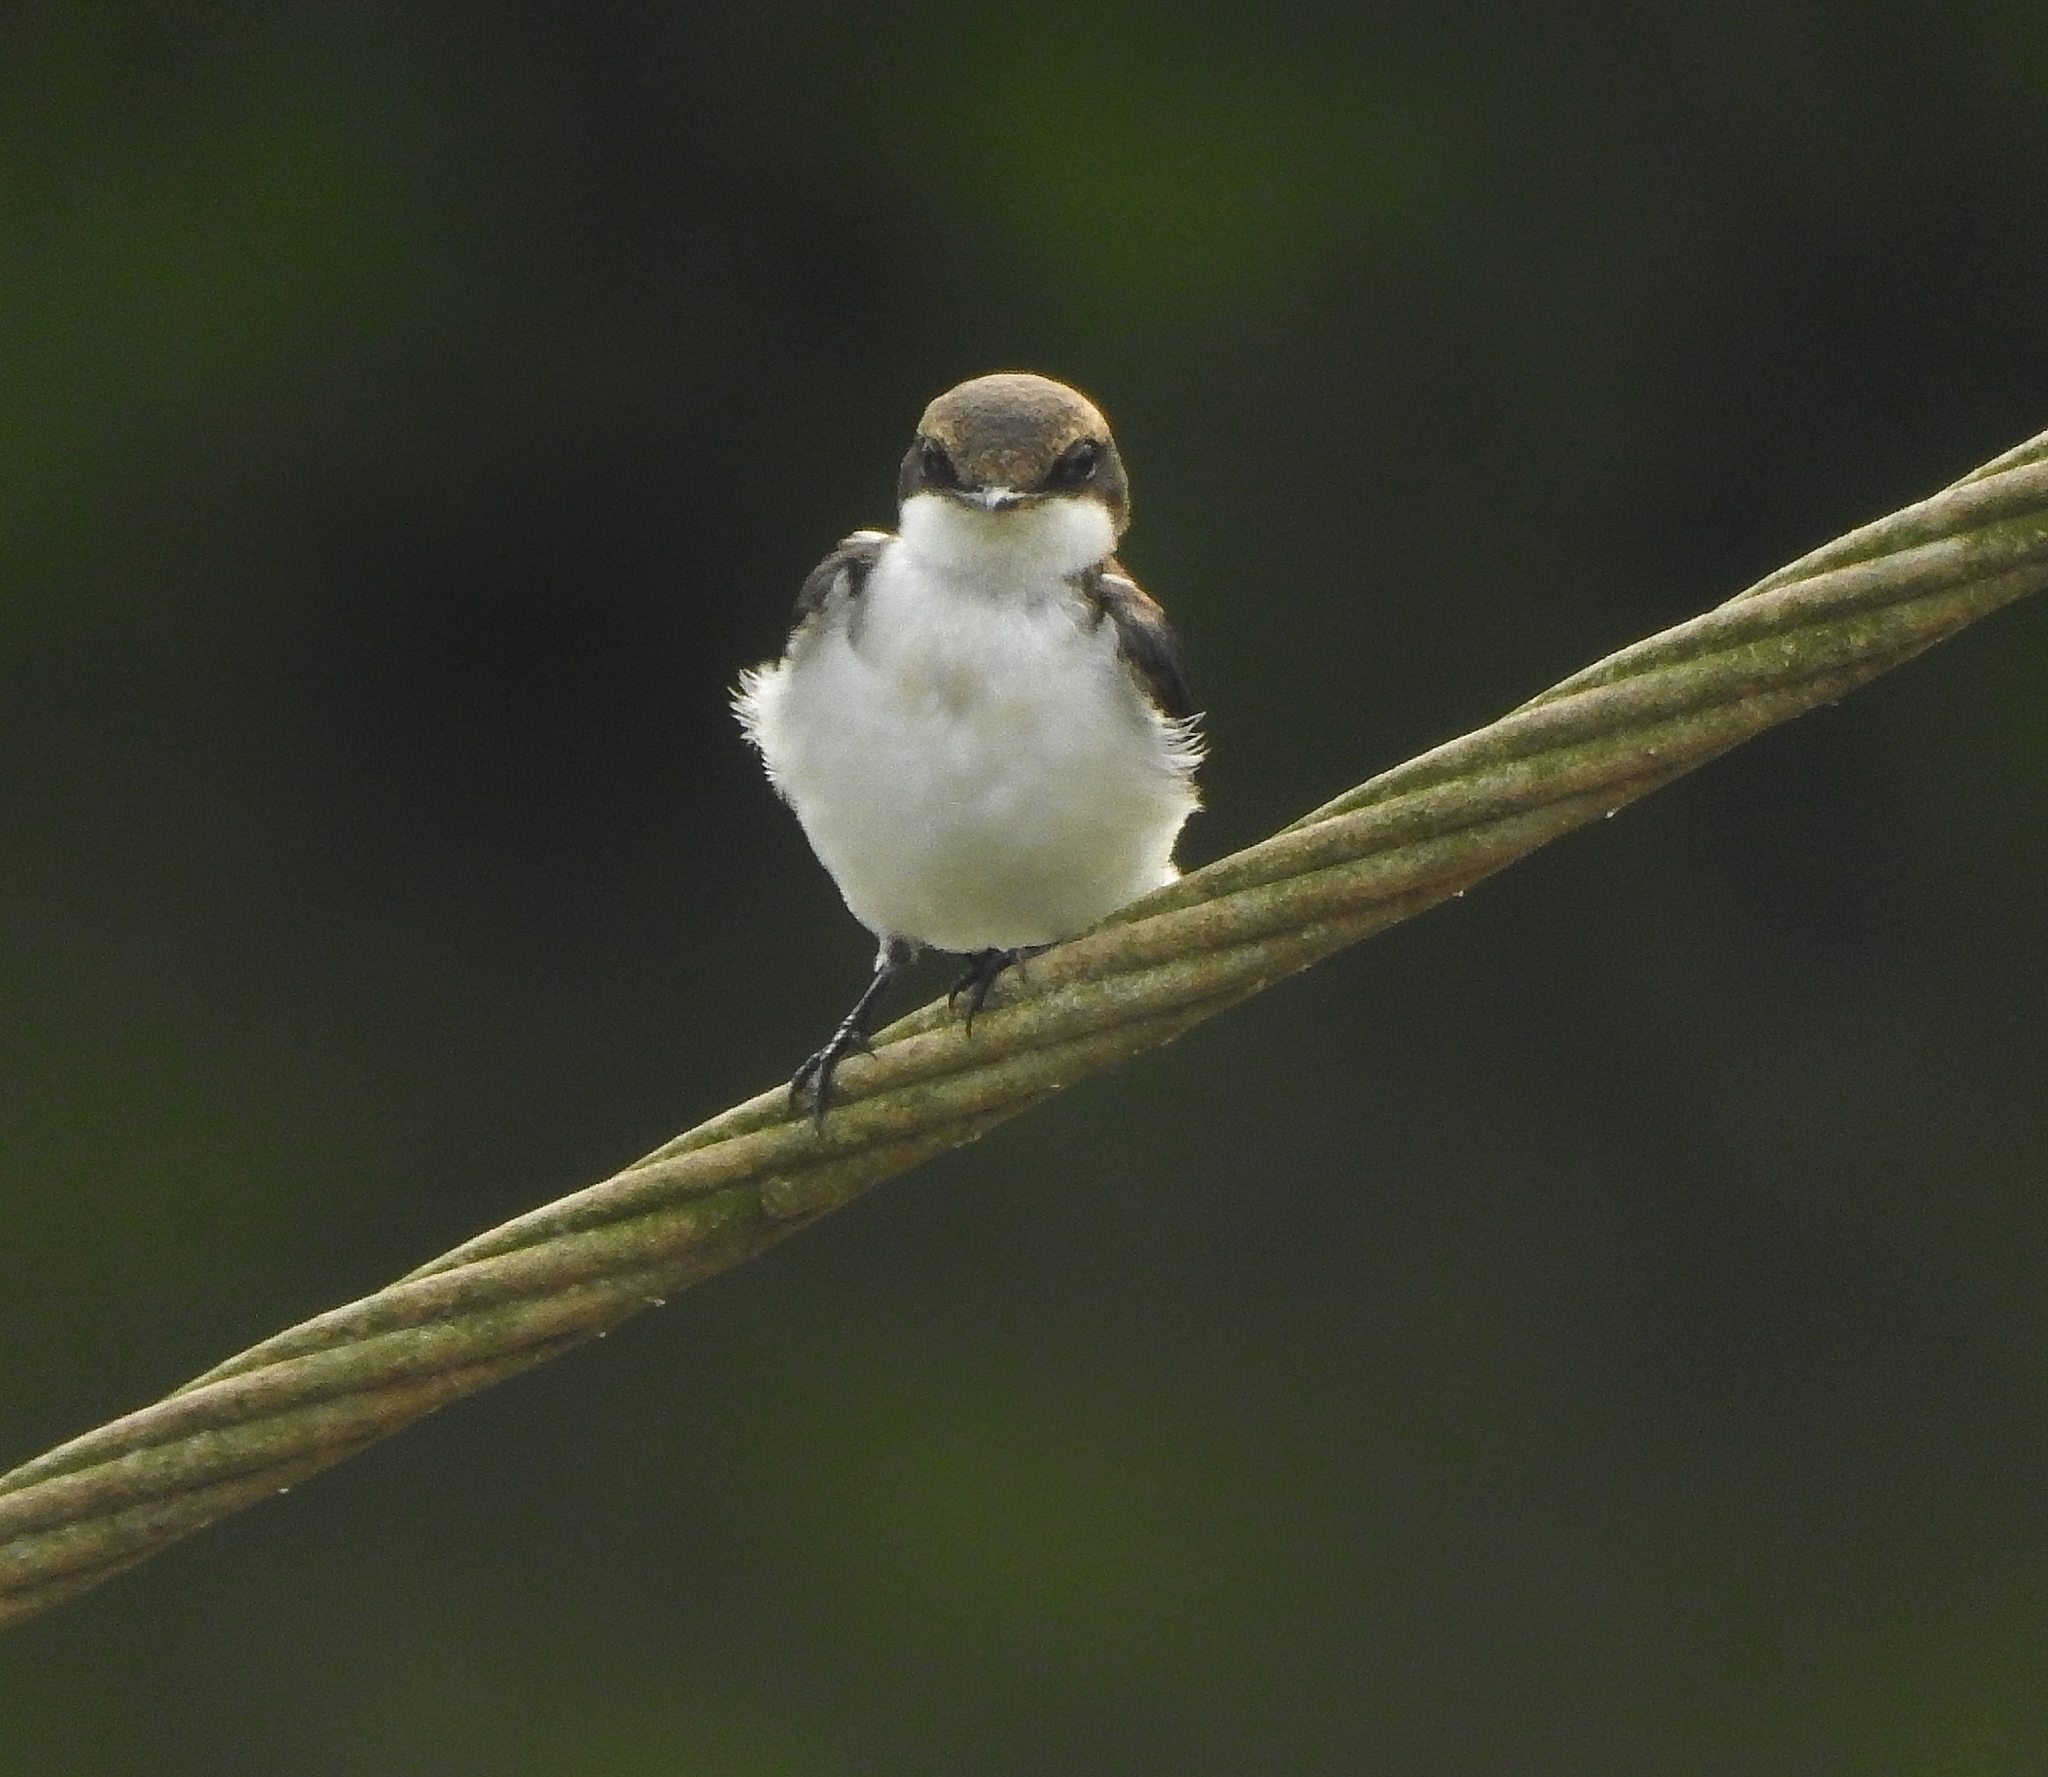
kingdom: Animalia
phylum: Chordata
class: Aves
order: Passeriformes
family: Hirundinidae
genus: Hirundo
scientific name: Hirundo smithii
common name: Wire-tailed swallow
